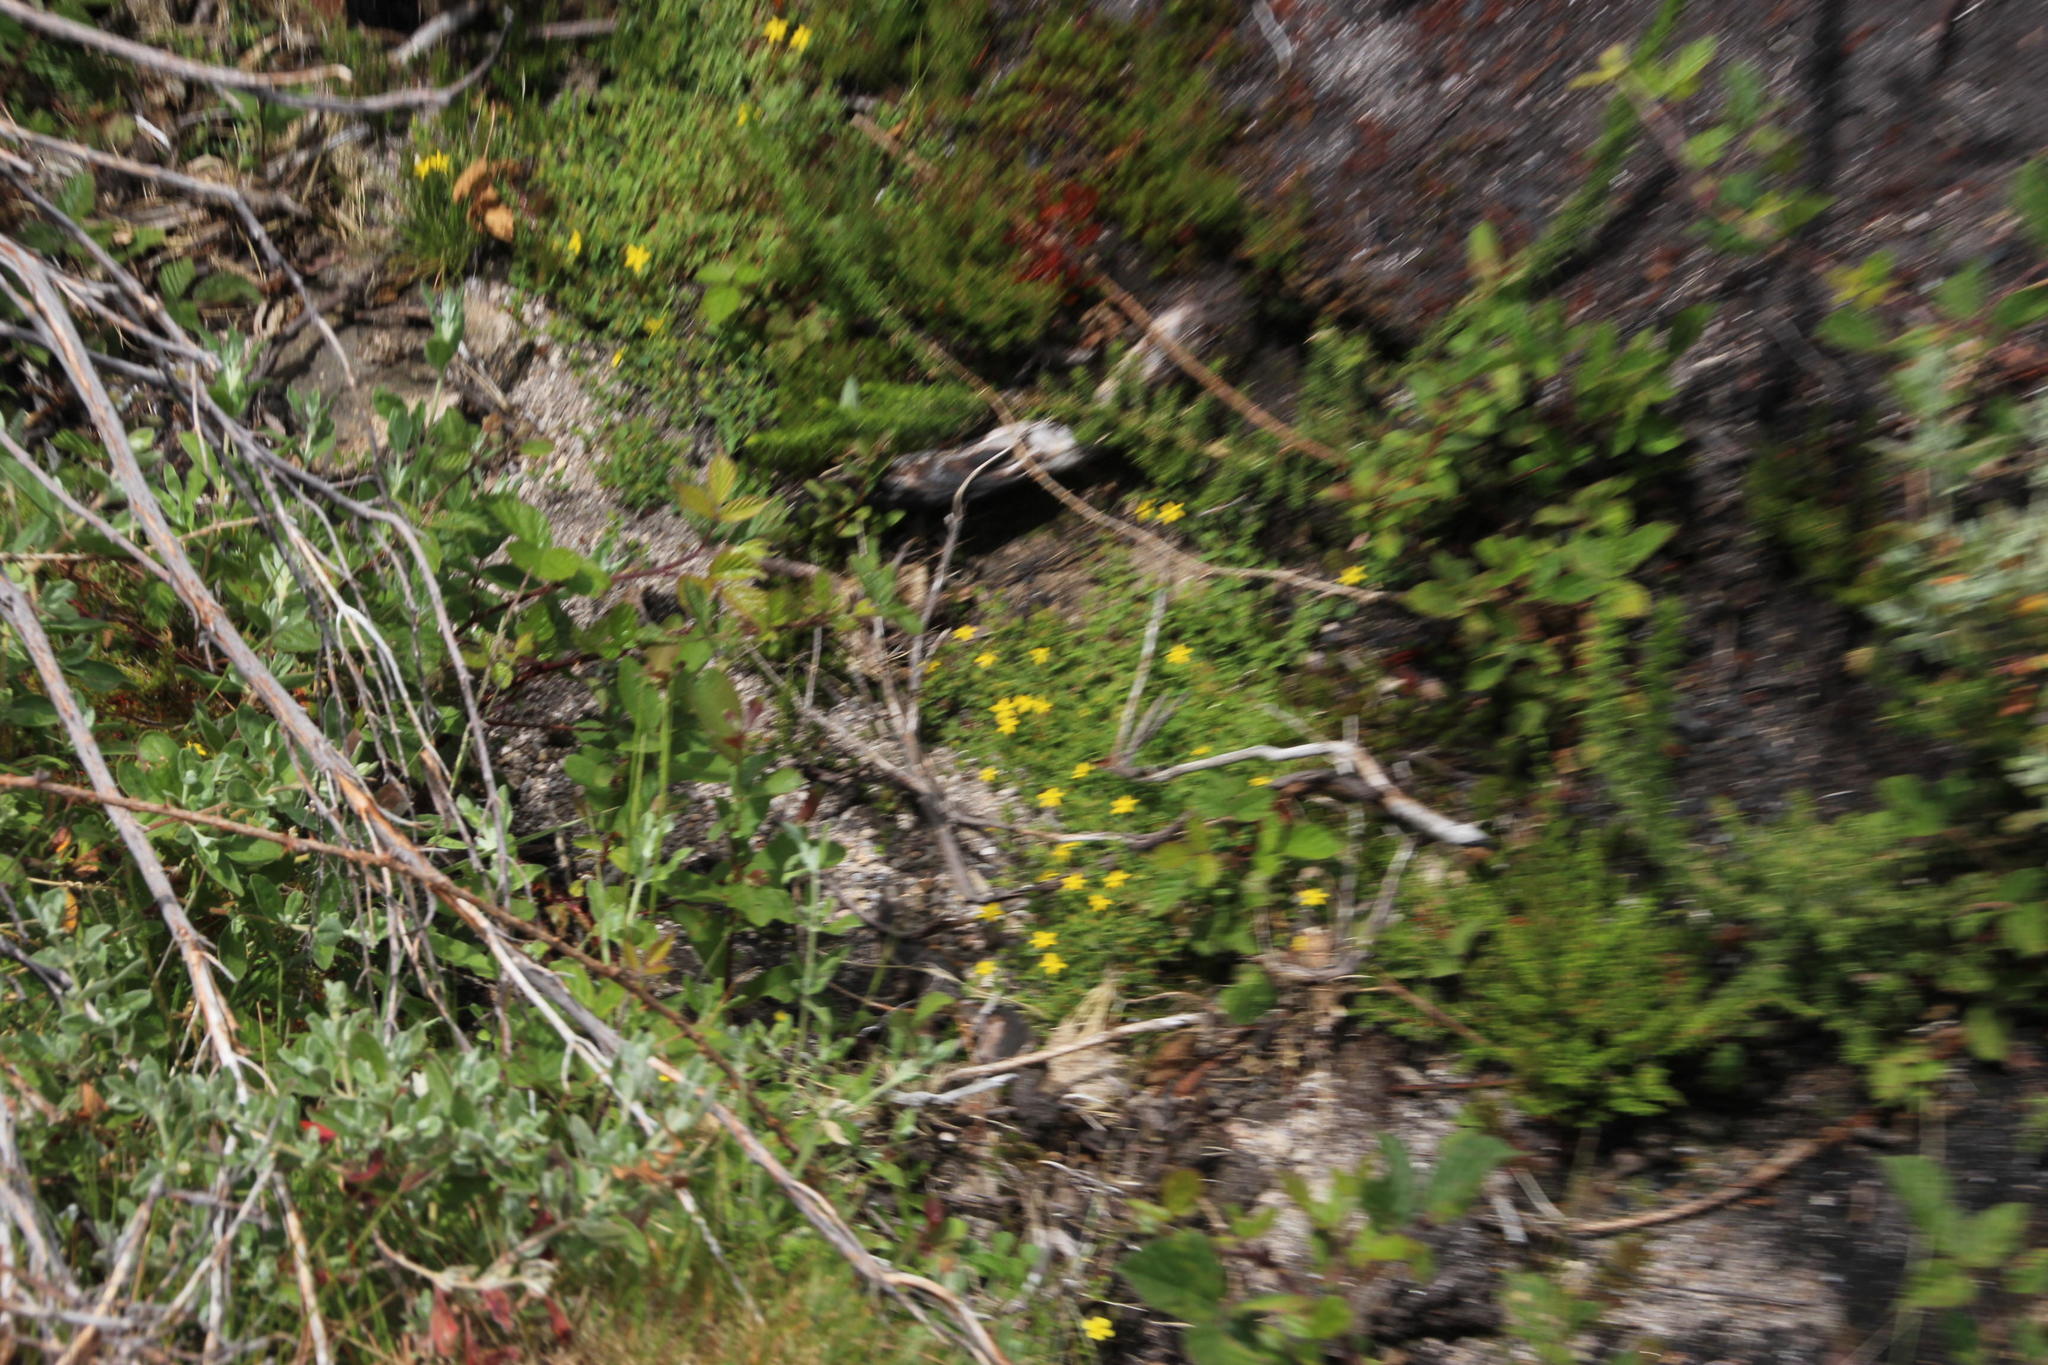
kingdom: Plantae
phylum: Tracheophyta
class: Magnoliopsida
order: Malpighiales
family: Hypericaceae
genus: Hypericum
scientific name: Hypericum humifusum
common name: Trailing st. john's-wort
